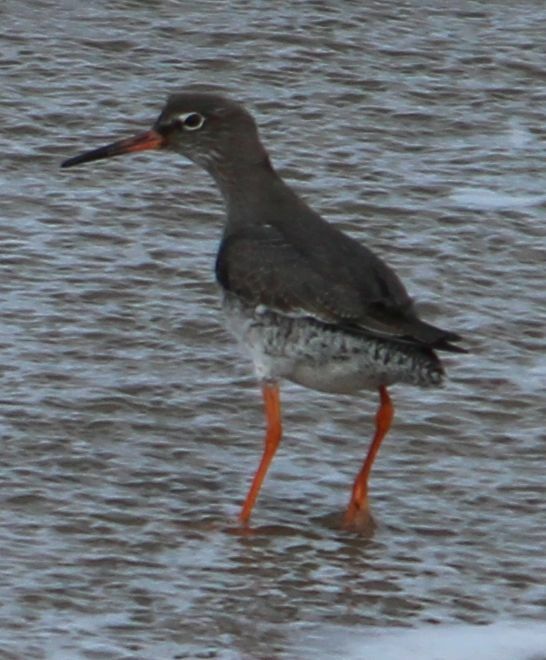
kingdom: Animalia
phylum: Chordata
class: Aves
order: Charadriiformes
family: Scolopacidae
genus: Tringa
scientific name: Tringa totanus
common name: Common redshank
